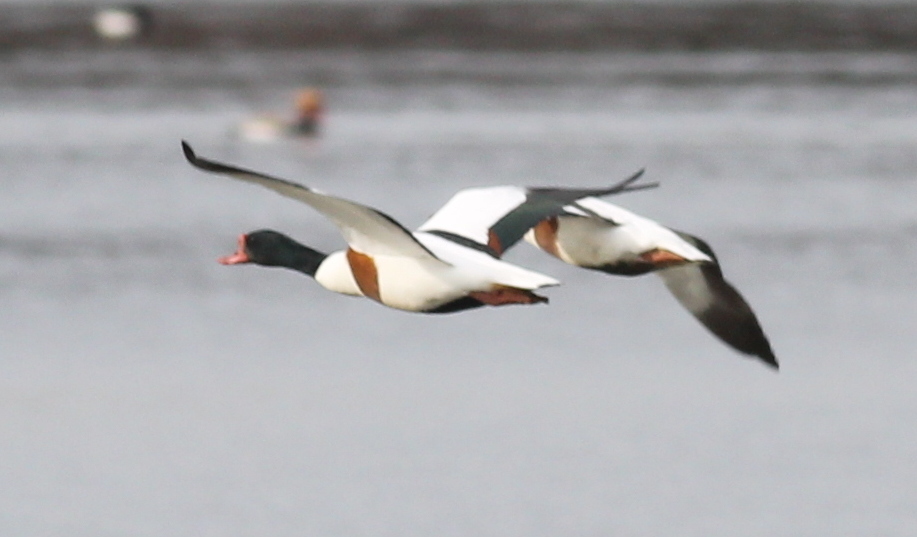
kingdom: Animalia
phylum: Chordata
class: Aves
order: Anseriformes
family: Anatidae
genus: Tadorna
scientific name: Tadorna tadorna
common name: Common shelduck
